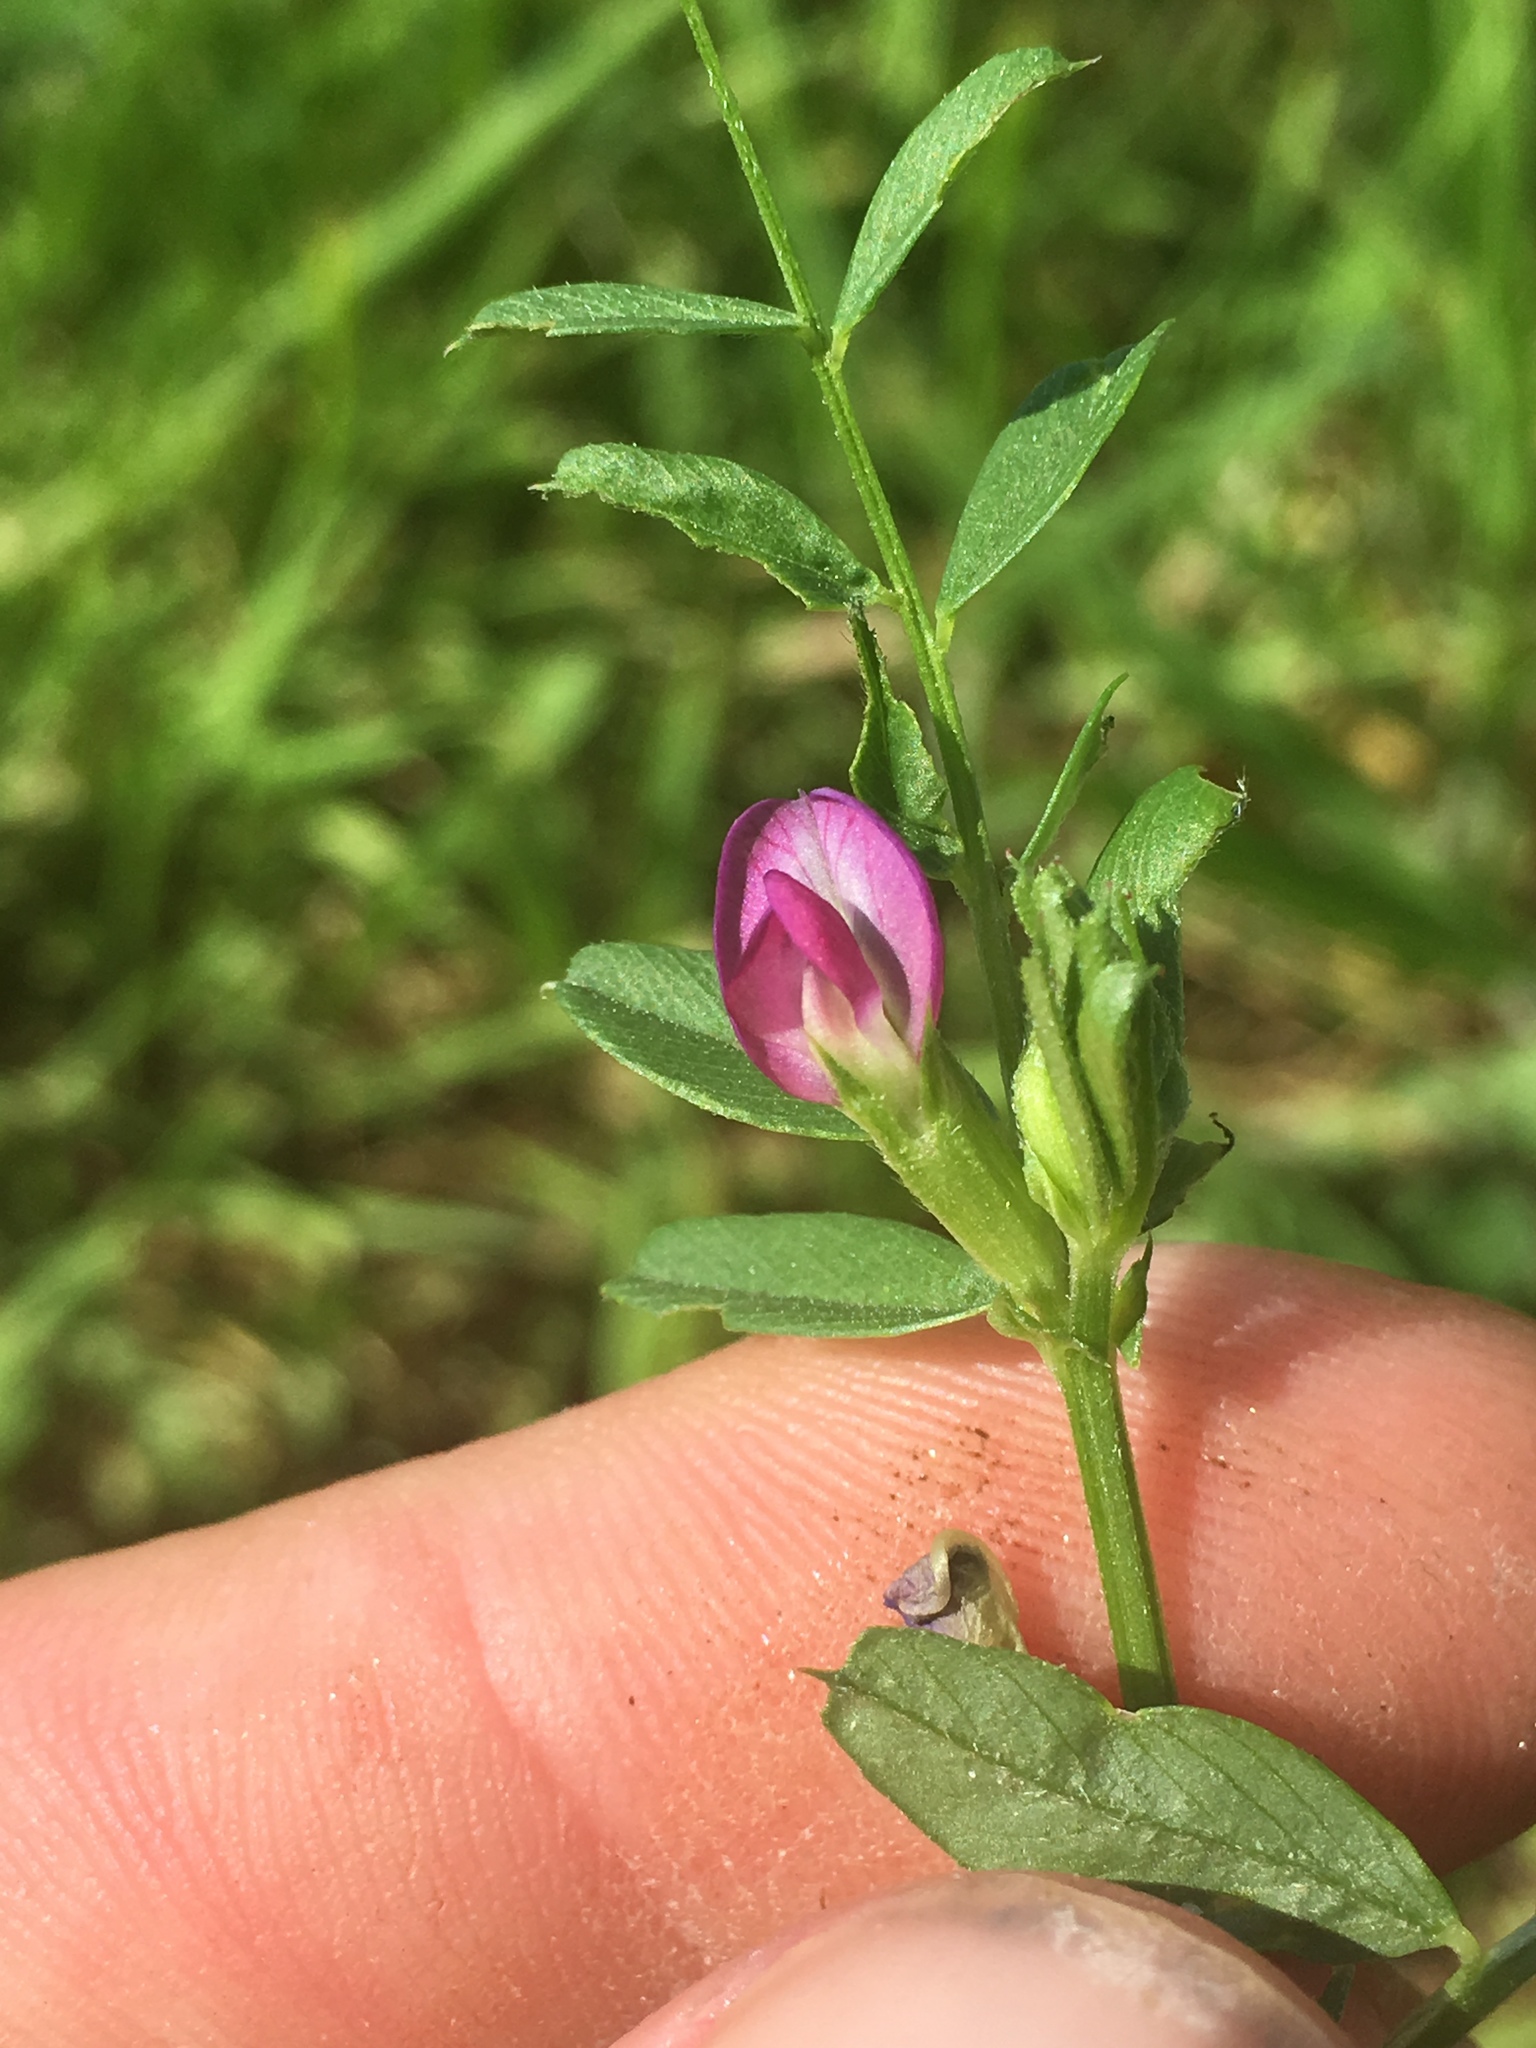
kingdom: Plantae
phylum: Tracheophyta
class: Magnoliopsida
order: Fabales
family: Fabaceae
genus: Vicia
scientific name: Vicia sativa
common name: Garden vetch
